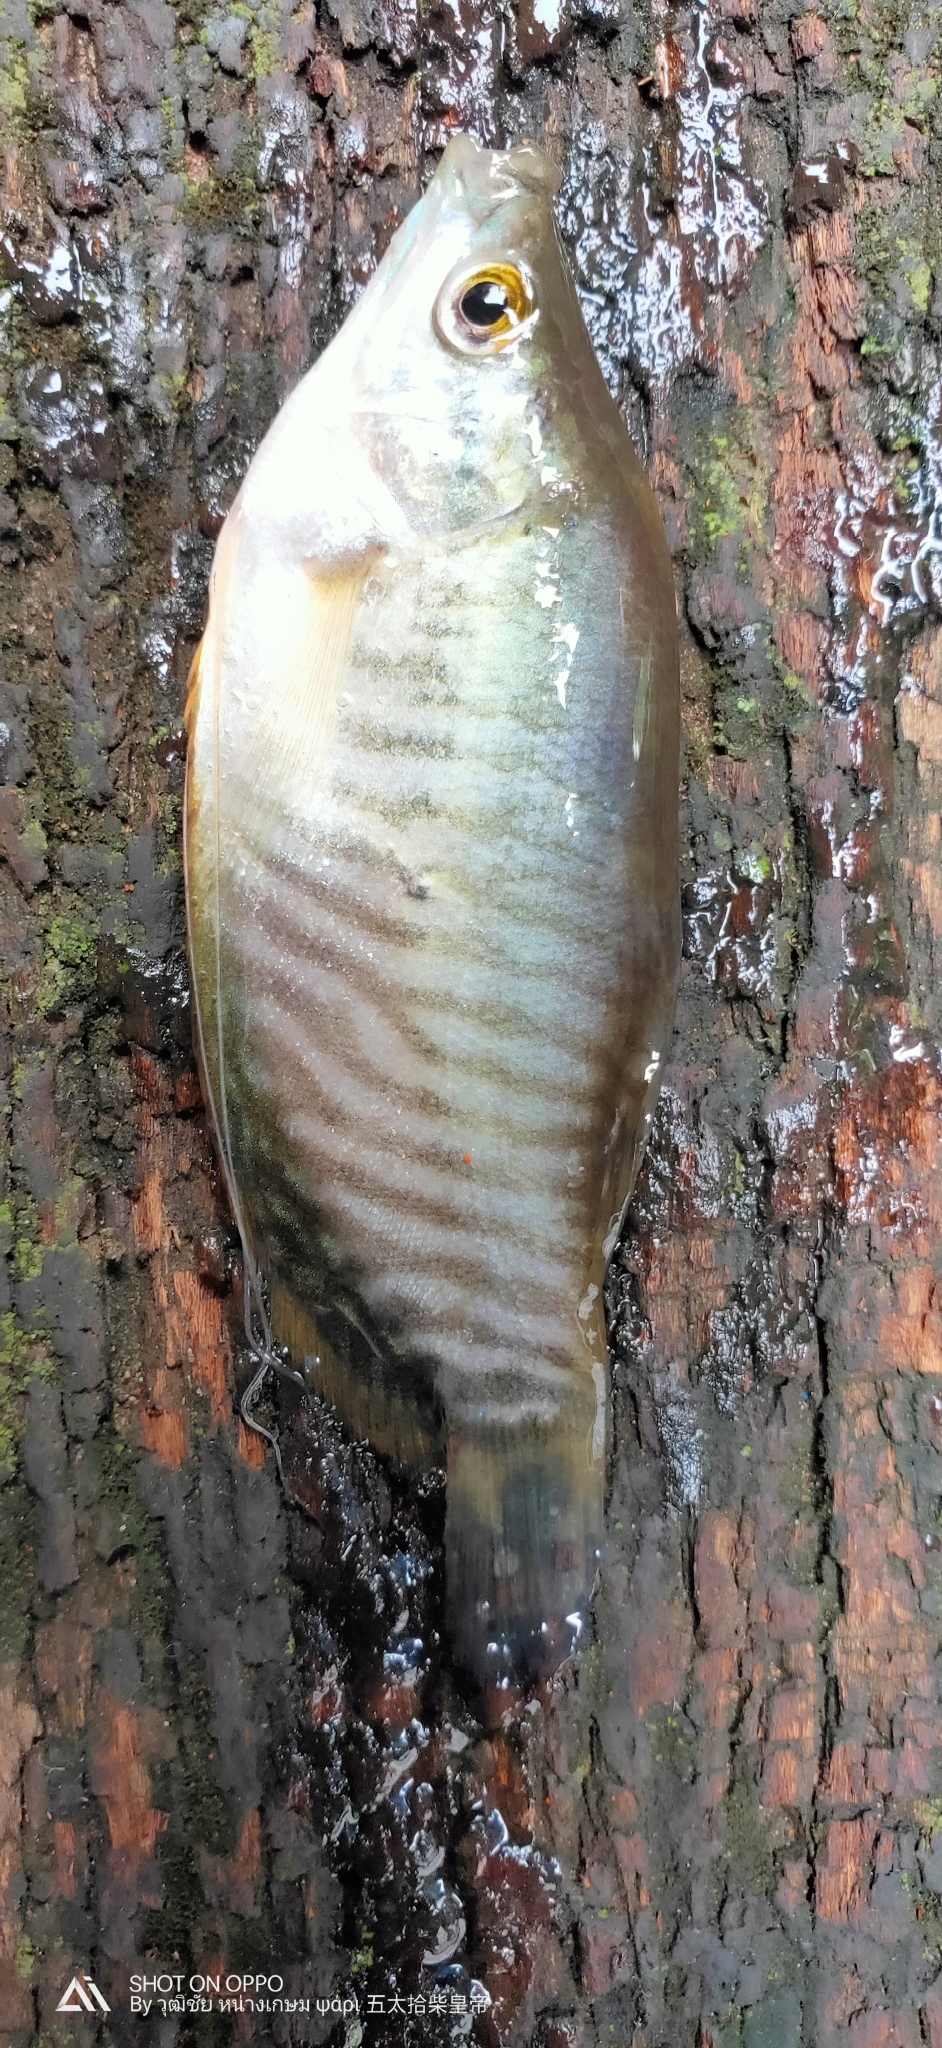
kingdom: Animalia
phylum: Chordata
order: Perciformes
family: Osphronemidae
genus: Trichopodus
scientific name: Trichopodus pectoralis
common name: Snakeskin gourami
